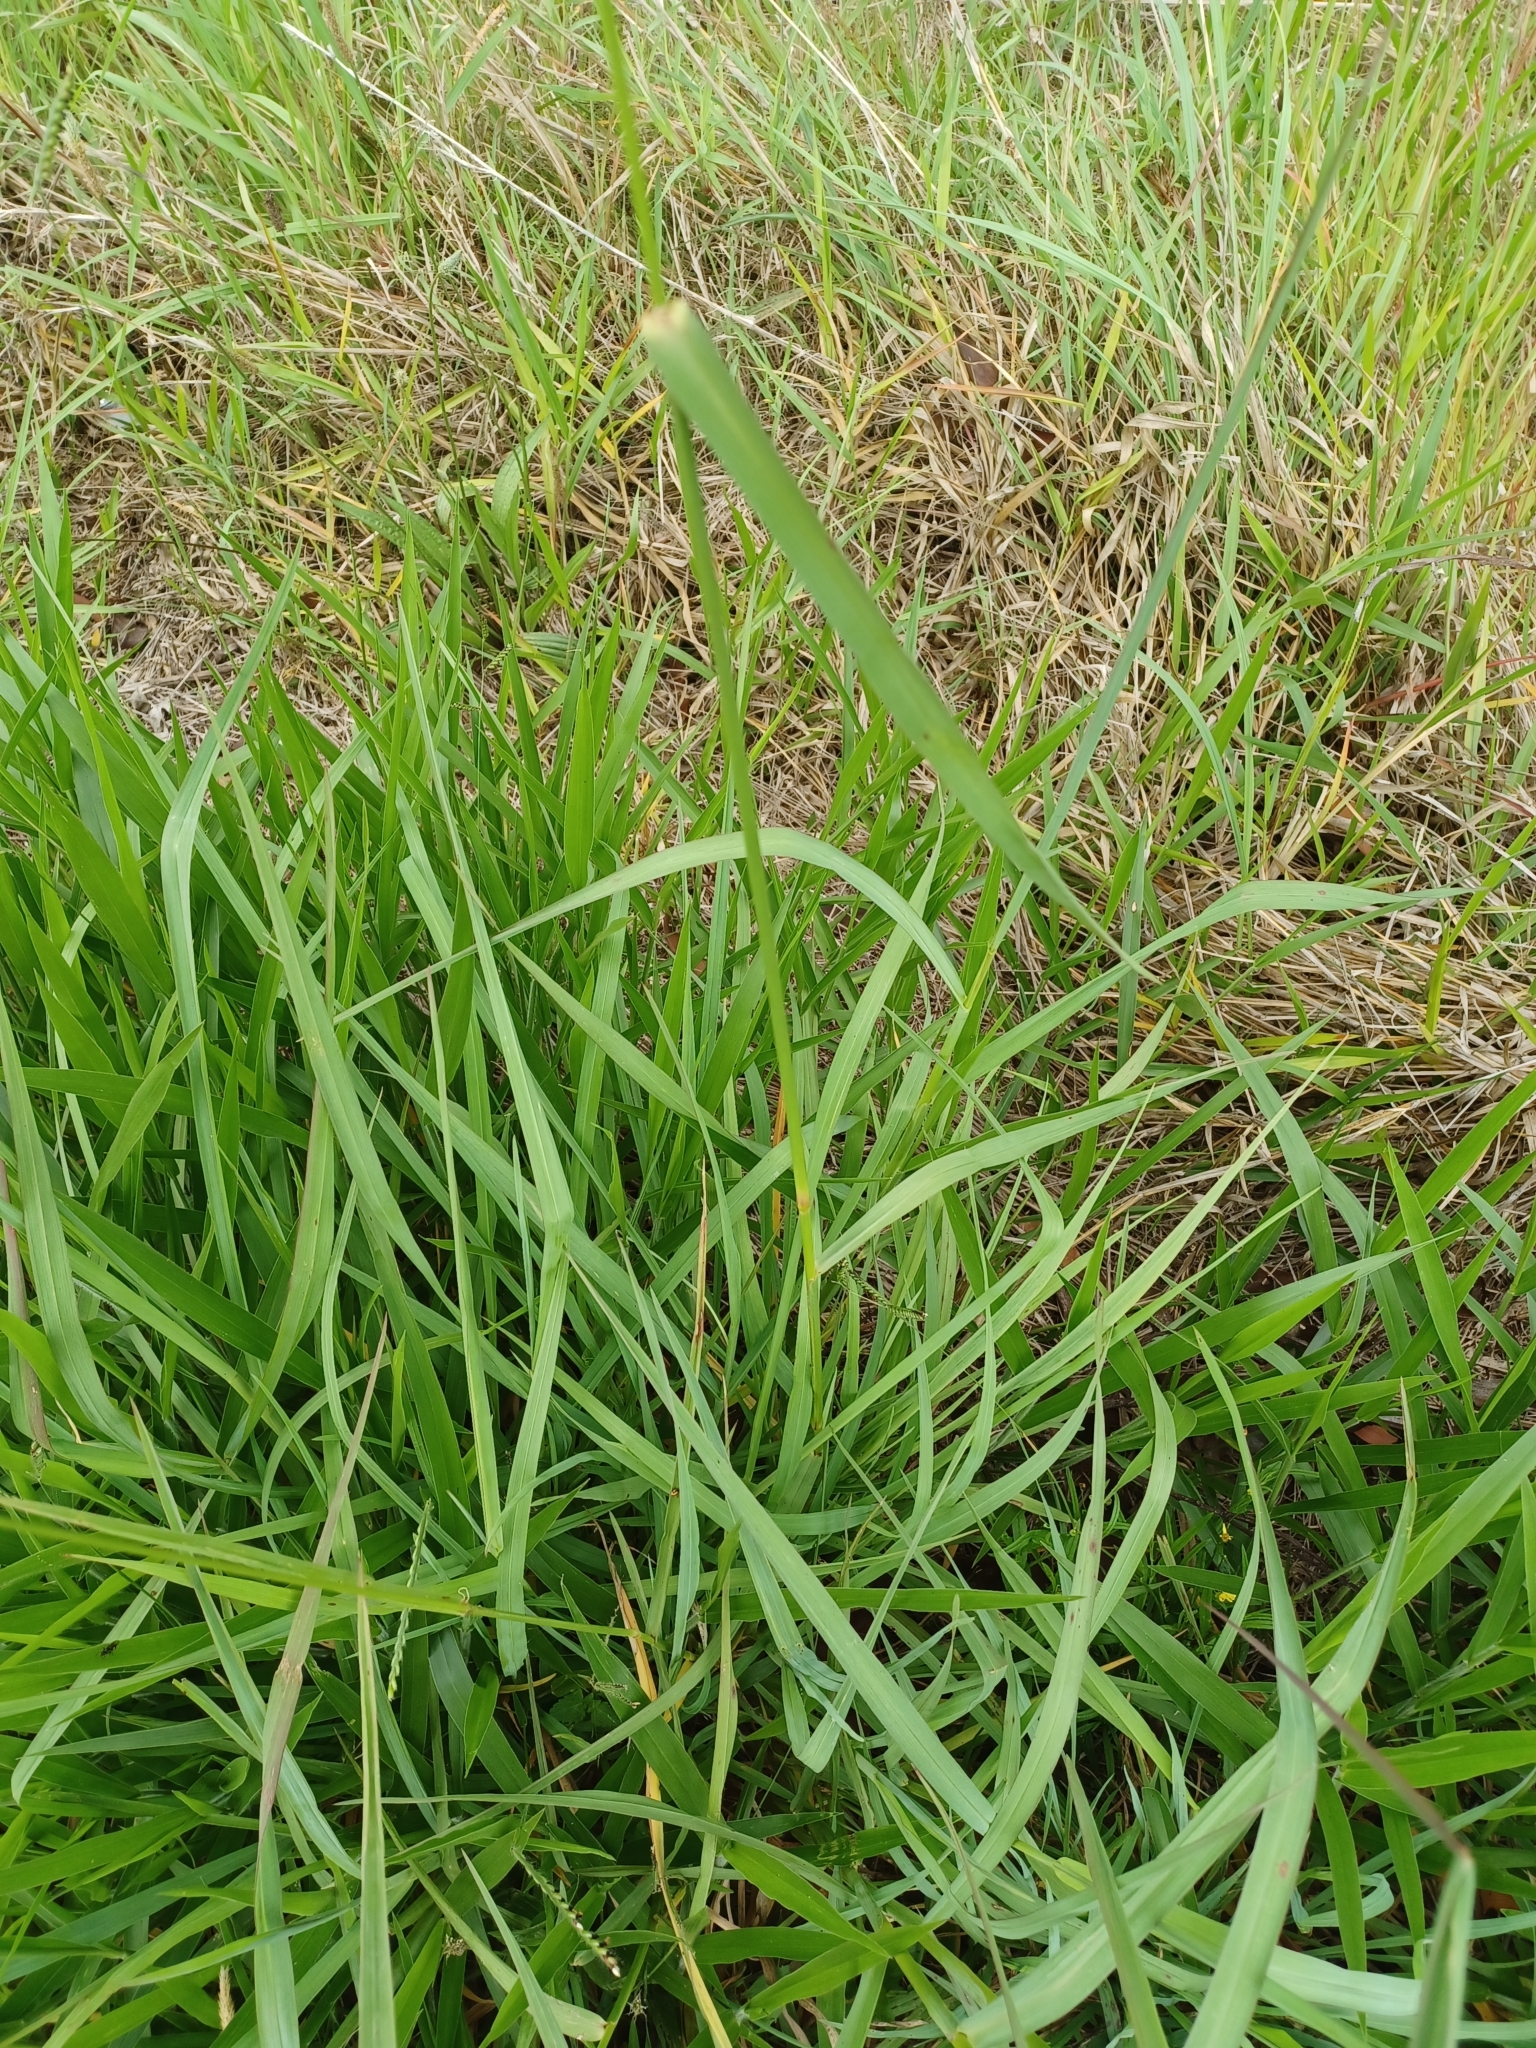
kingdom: Plantae
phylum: Tracheophyta
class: Liliopsida
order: Poales
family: Poaceae
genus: Setaria
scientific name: Setaria sphacelata
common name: African bristlegrass
